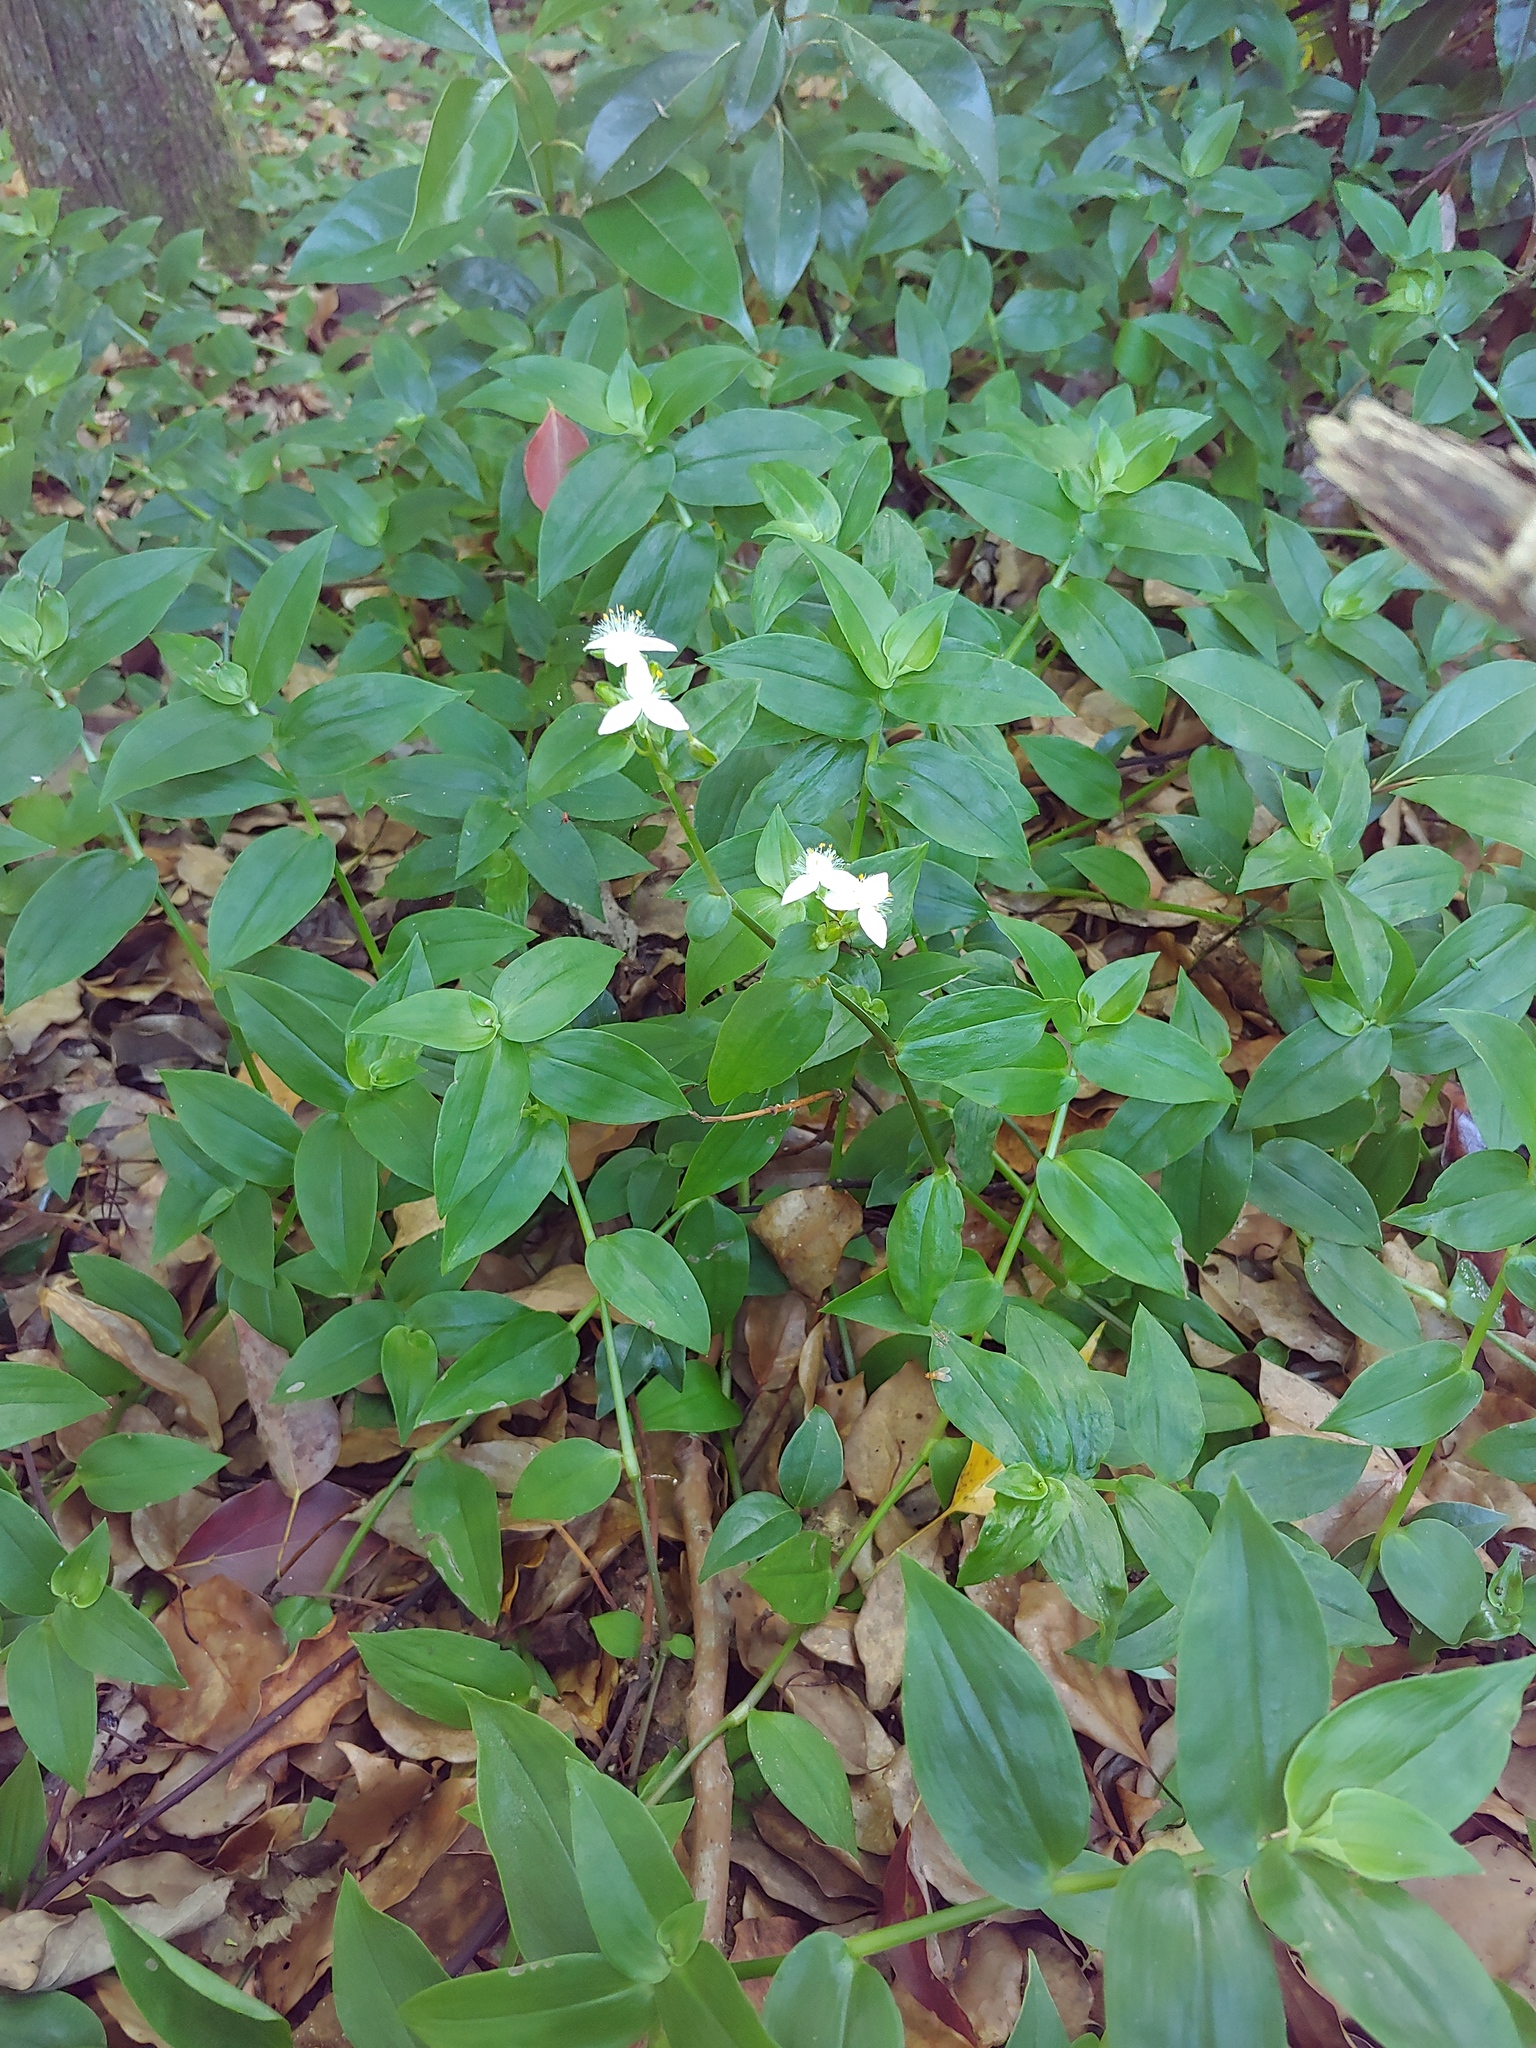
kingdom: Plantae
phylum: Tracheophyta
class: Liliopsida
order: Commelinales
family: Commelinaceae
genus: Tradescantia
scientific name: Tradescantia fluminensis
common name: Wandering-jew
